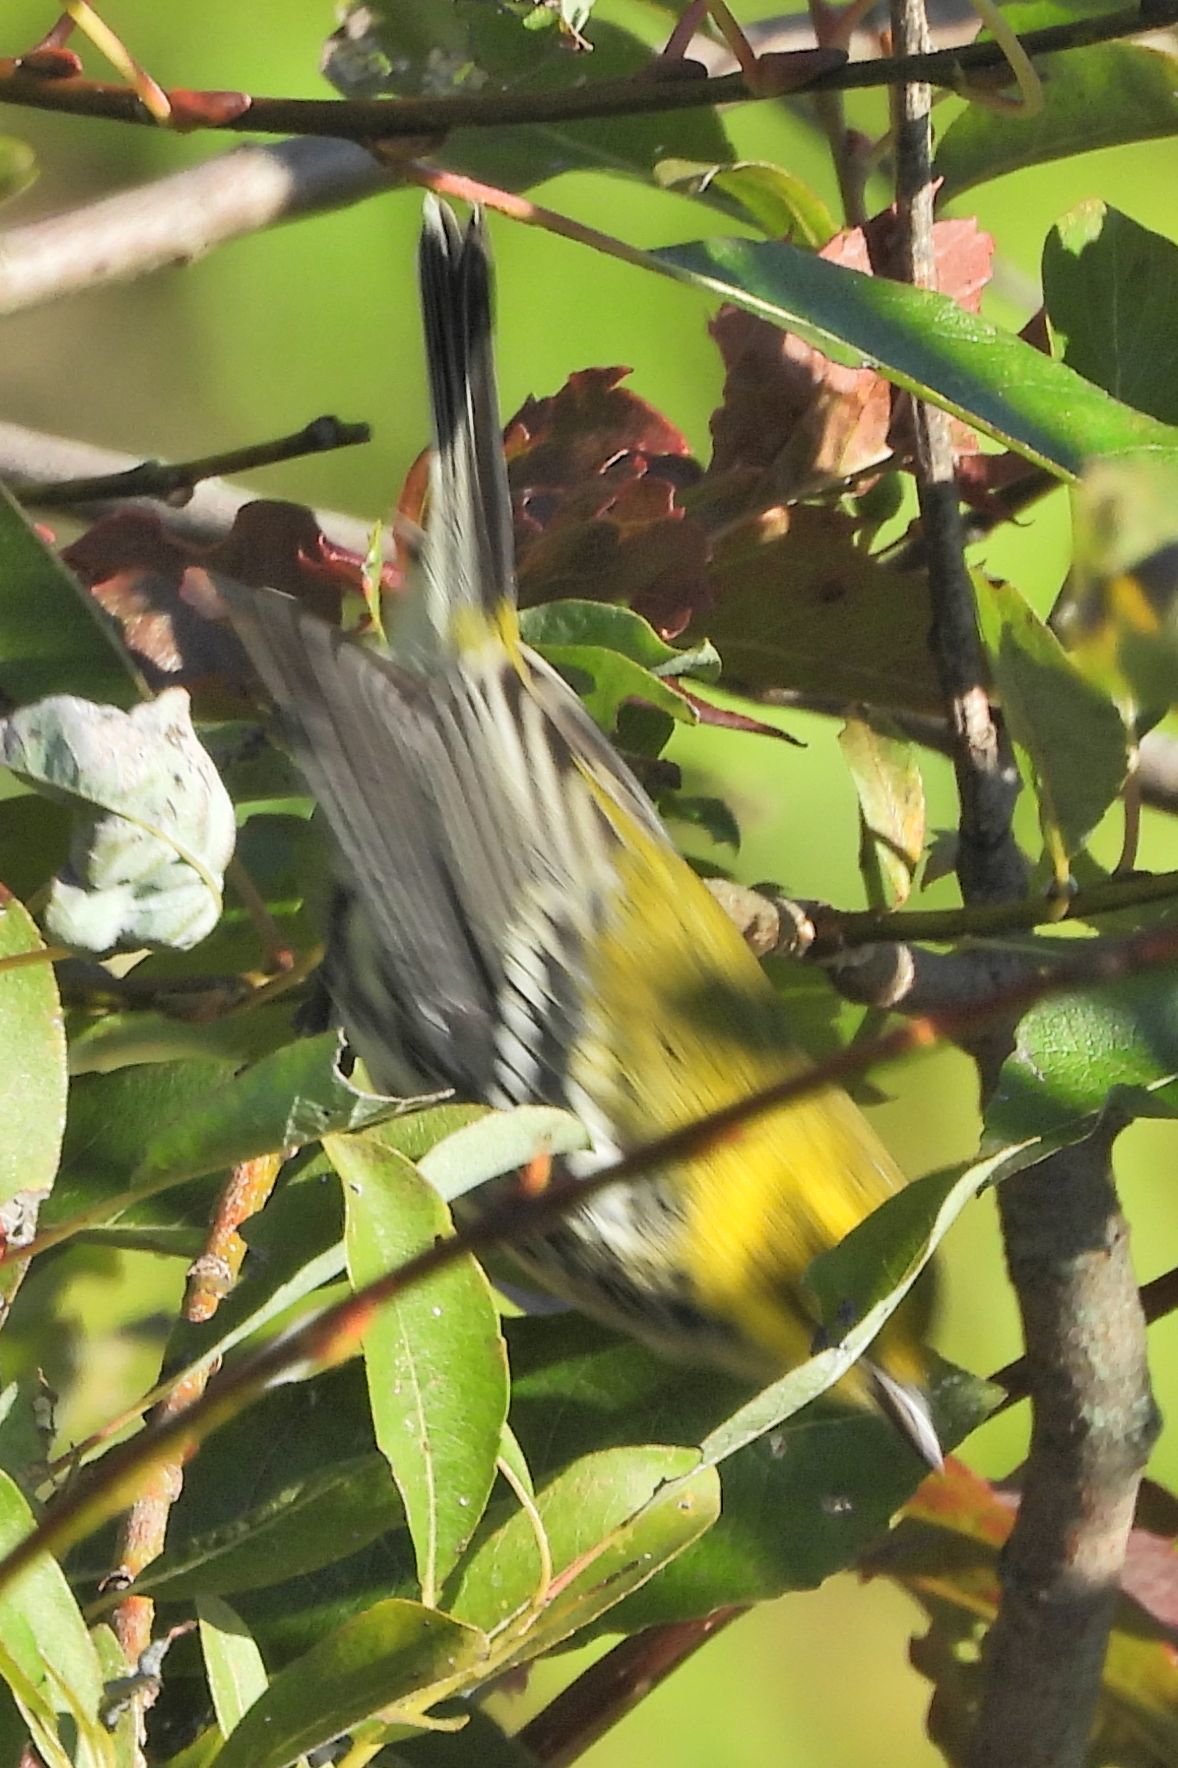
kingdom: Animalia
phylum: Chordata
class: Aves
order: Passeriformes
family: Parulidae
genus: Setophaga
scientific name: Setophaga virens
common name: Black-throated green warbler
